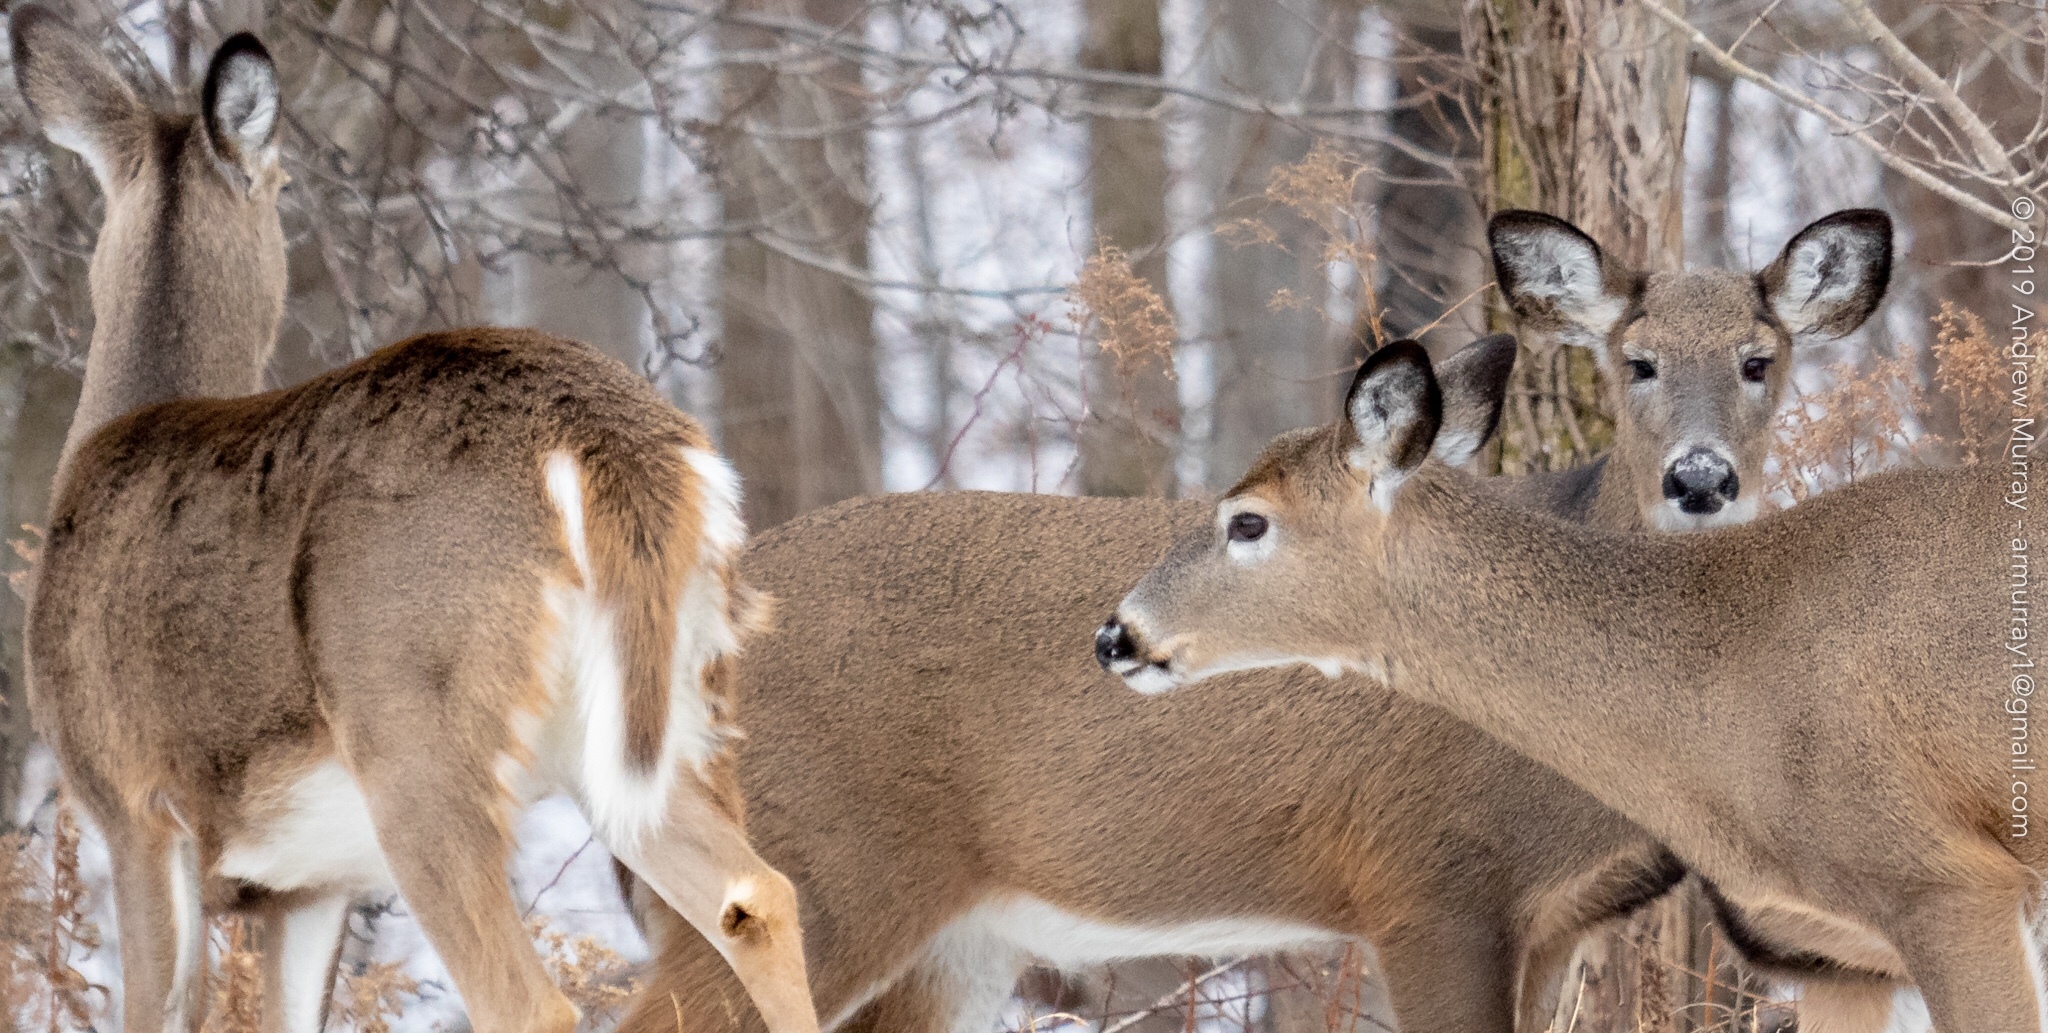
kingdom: Animalia
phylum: Chordata
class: Mammalia
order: Artiodactyla
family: Cervidae
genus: Odocoileus
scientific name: Odocoileus virginianus
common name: White-tailed deer
